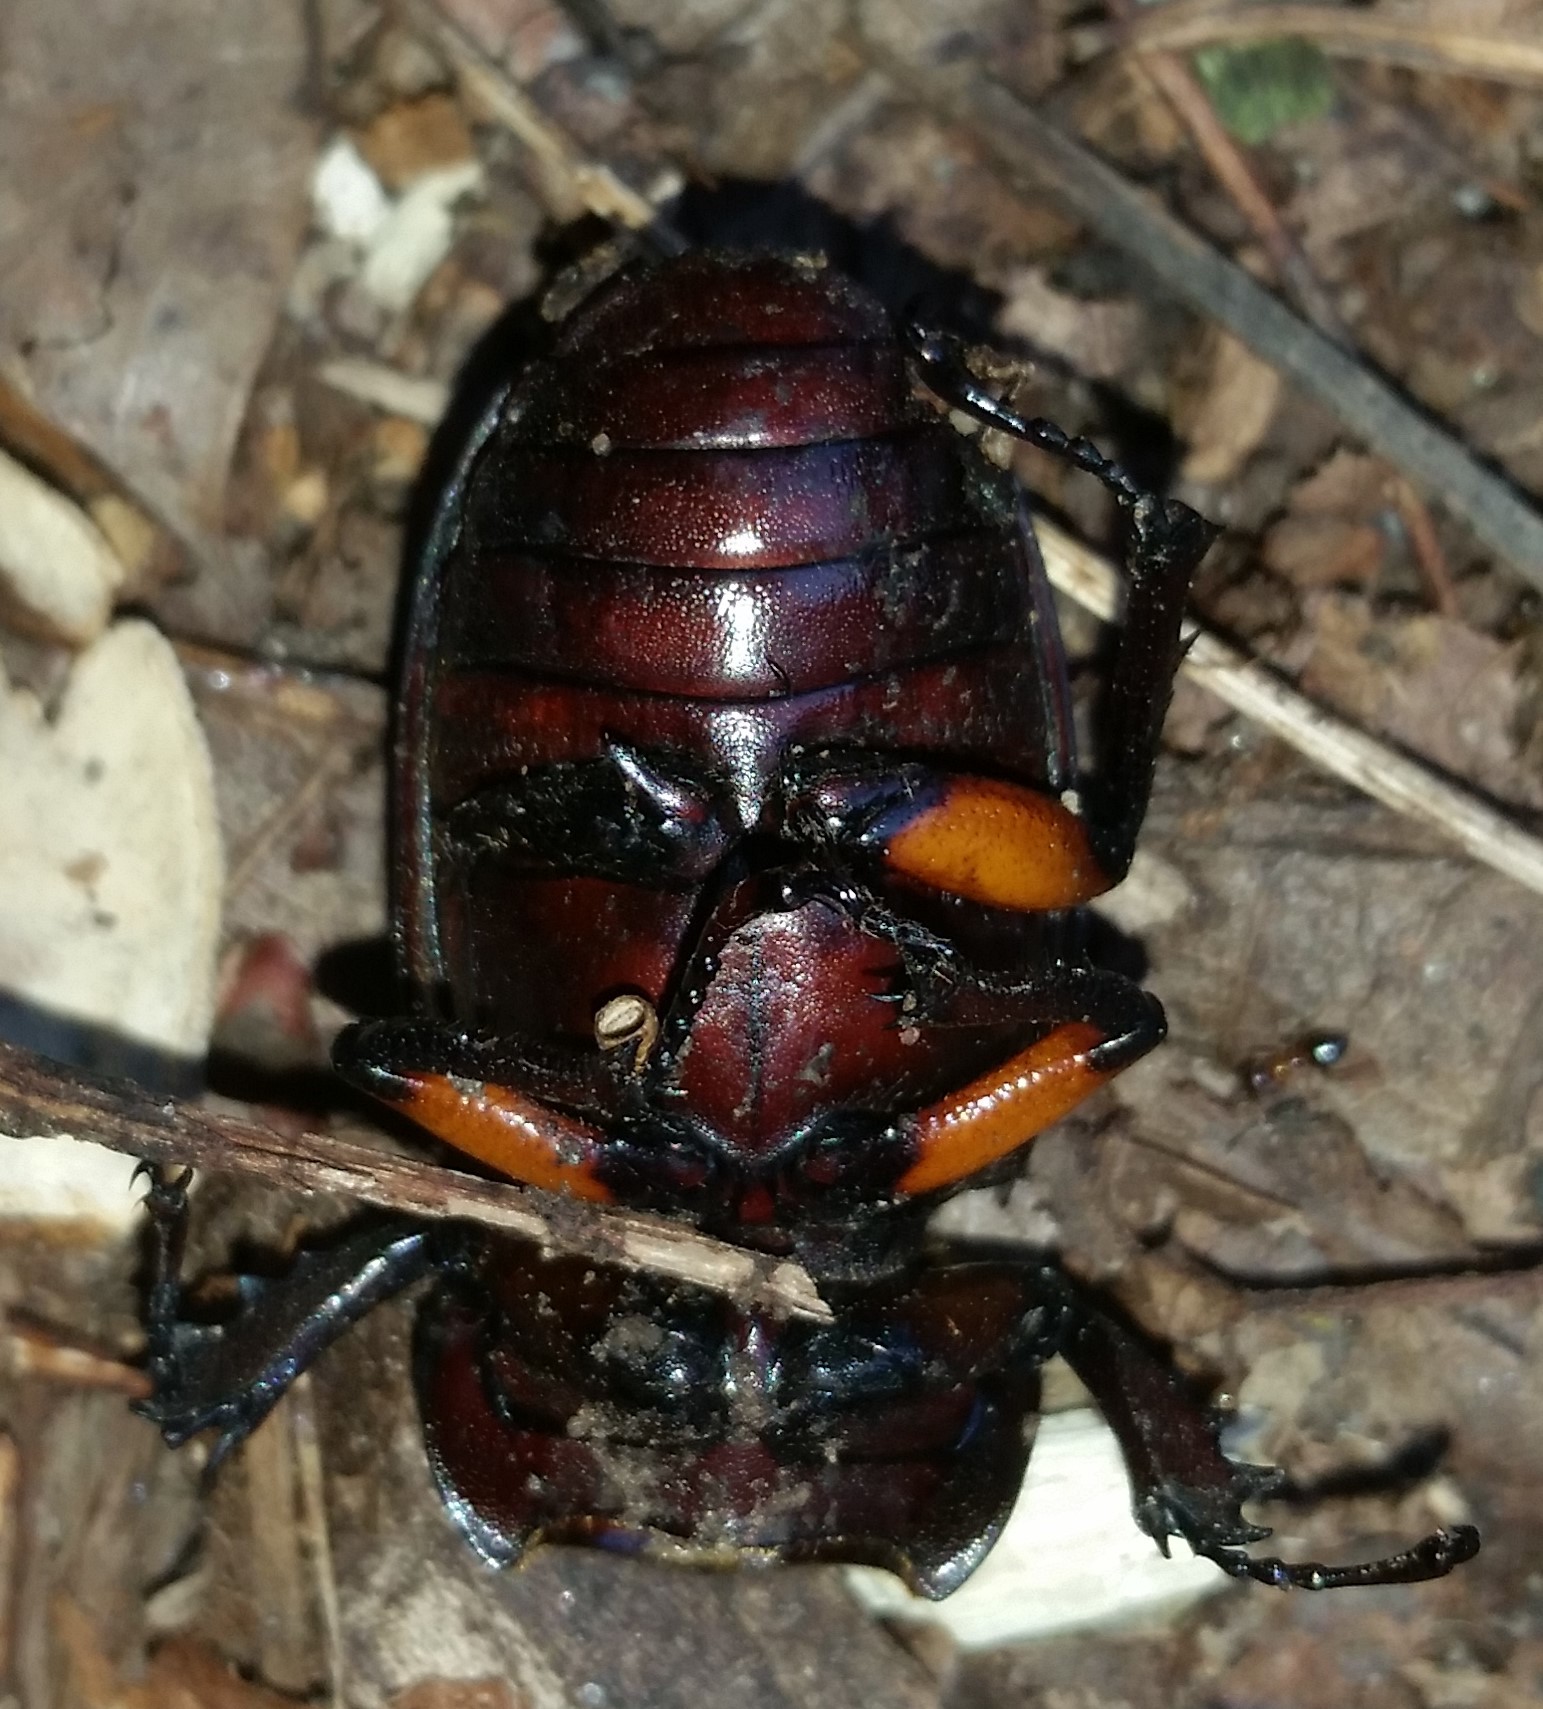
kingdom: Animalia
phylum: Arthropoda
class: Insecta
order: Coleoptera
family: Lucanidae
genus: Lucanus
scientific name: Lucanus capreolus
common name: Stag beetle
